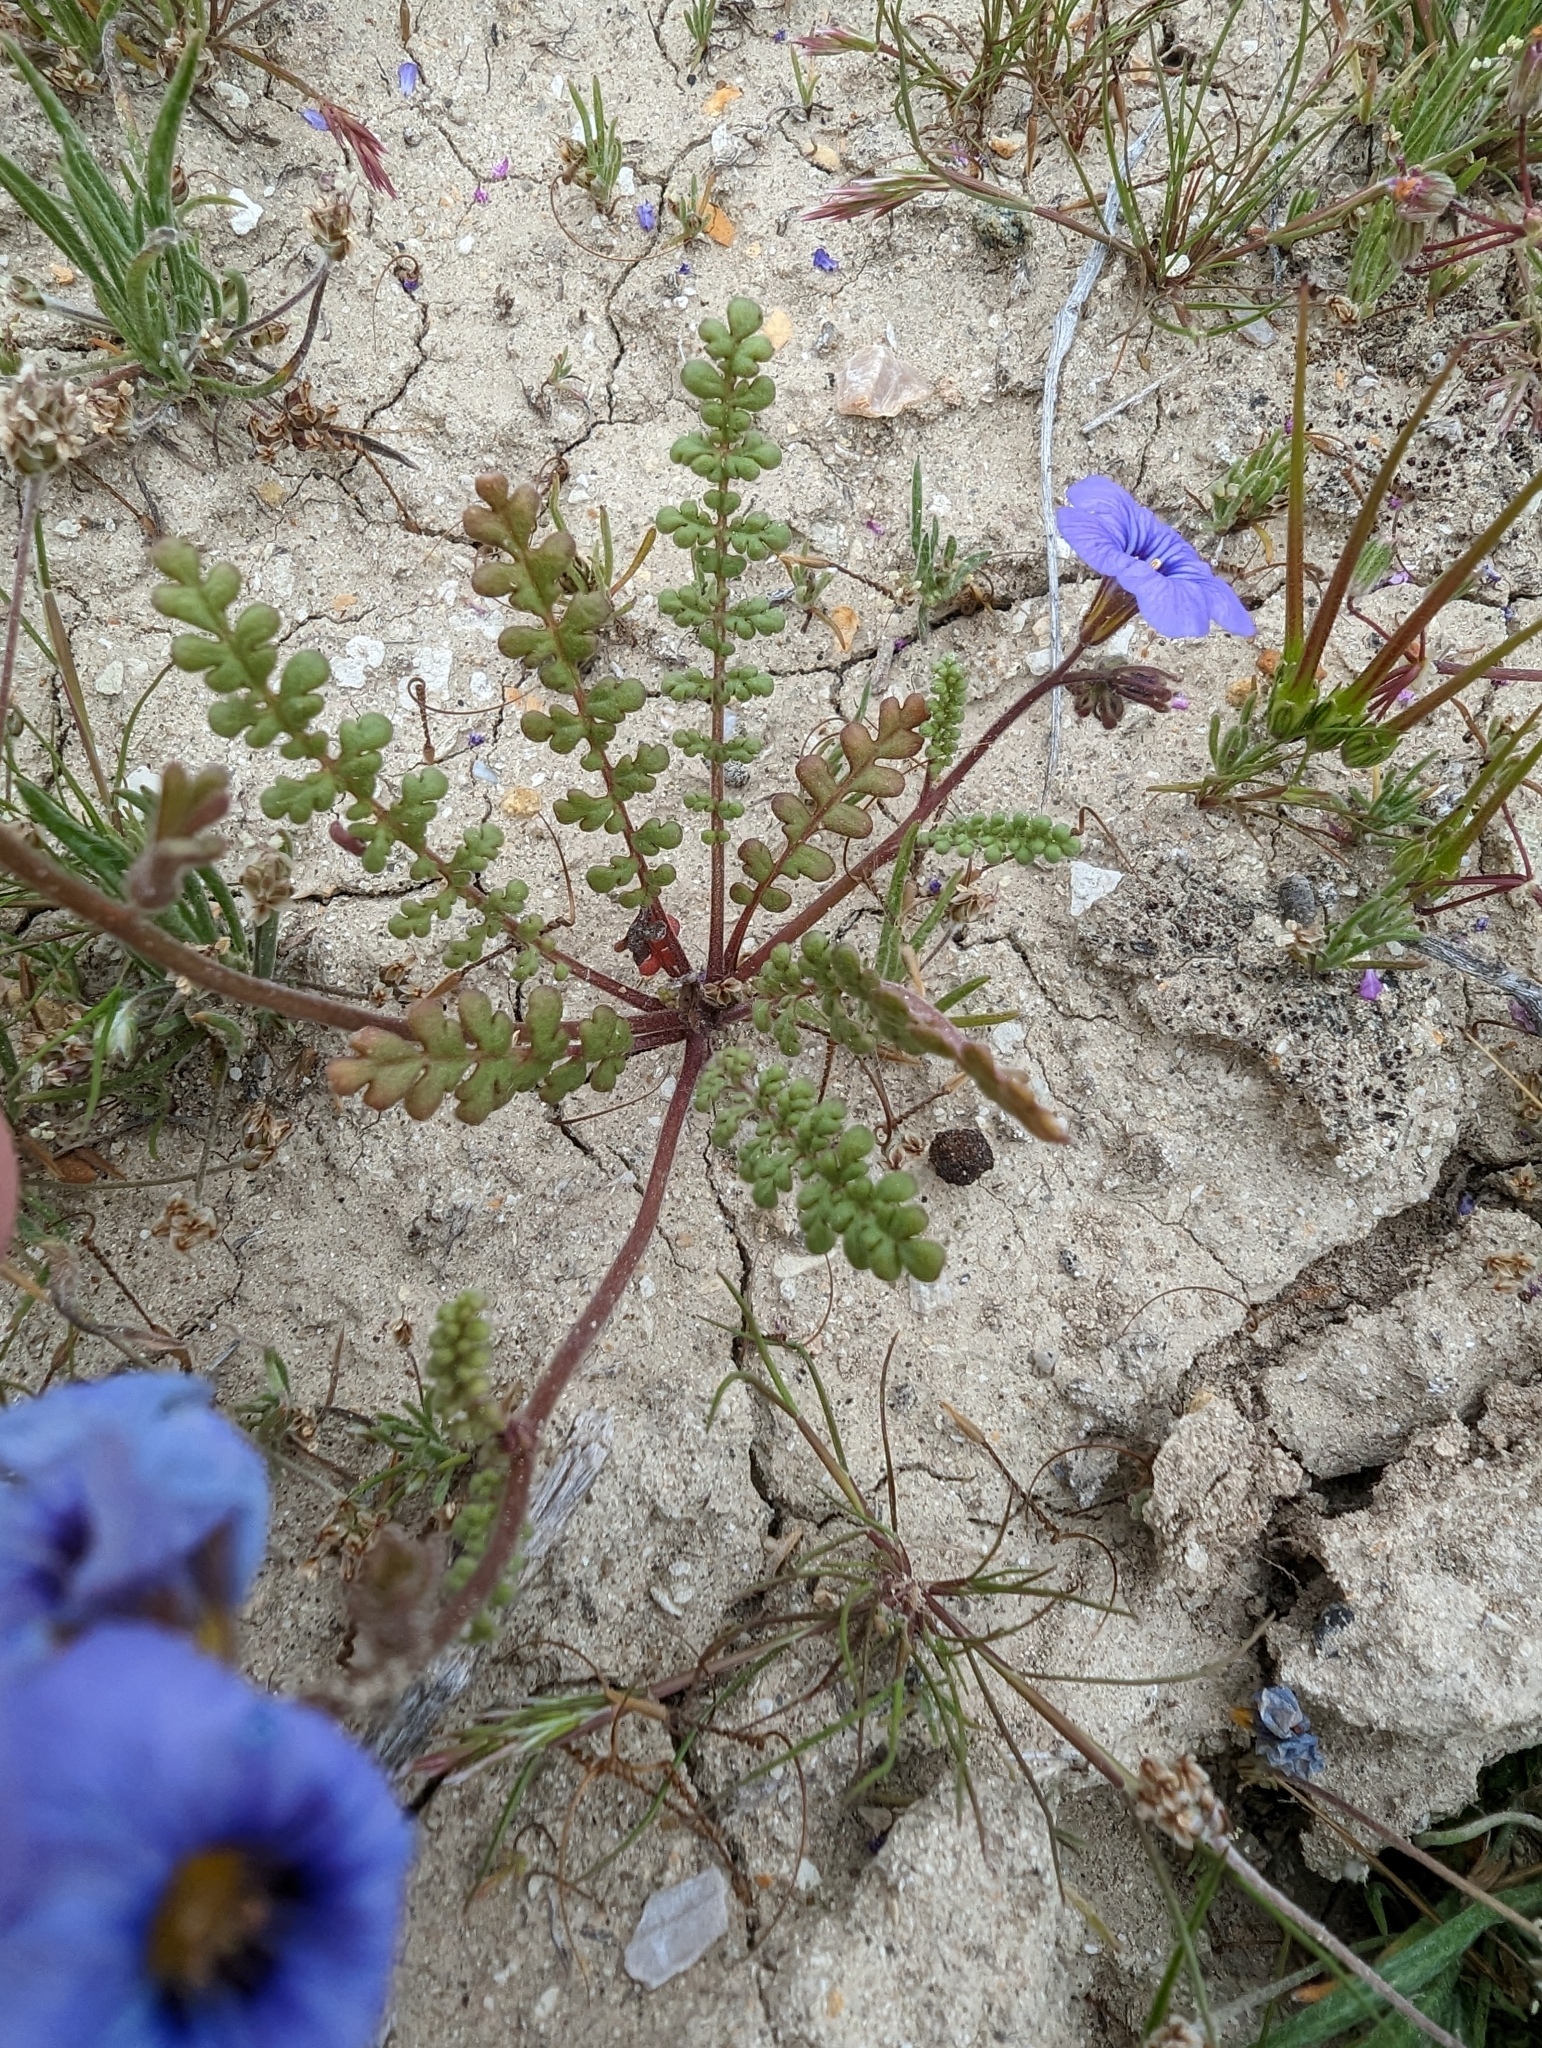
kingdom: Plantae
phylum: Tracheophyta
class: Magnoliopsida
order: Boraginales
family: Hydrophyllaceae
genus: Phacelia
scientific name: Phacelia fremontii
